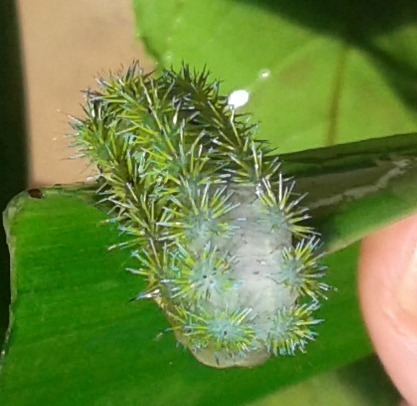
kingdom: Animalia
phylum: Arthropoda
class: Insecta
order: Lepidoptera
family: Limacodidae
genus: Latoia
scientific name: Latoia intermissa
